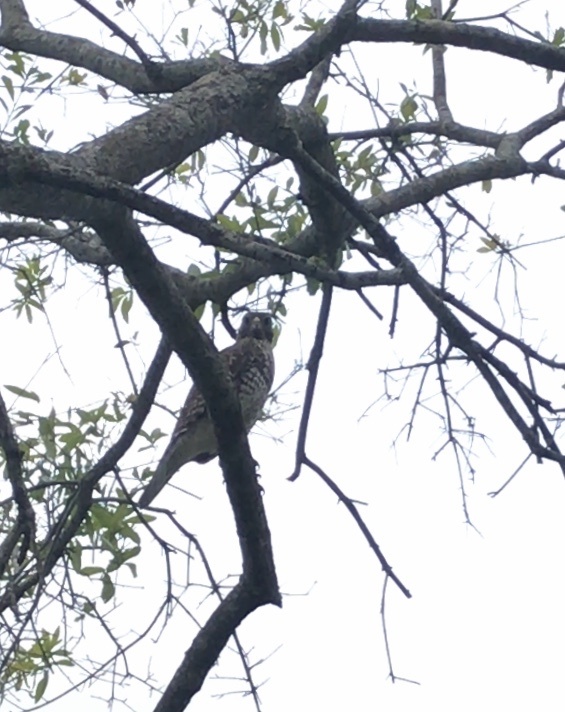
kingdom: Animalia
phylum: Chordata
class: Aves
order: Accipitriformes
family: Accipitridae
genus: Buteo
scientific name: Buteo lineatus
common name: Red-shouldered hawk
